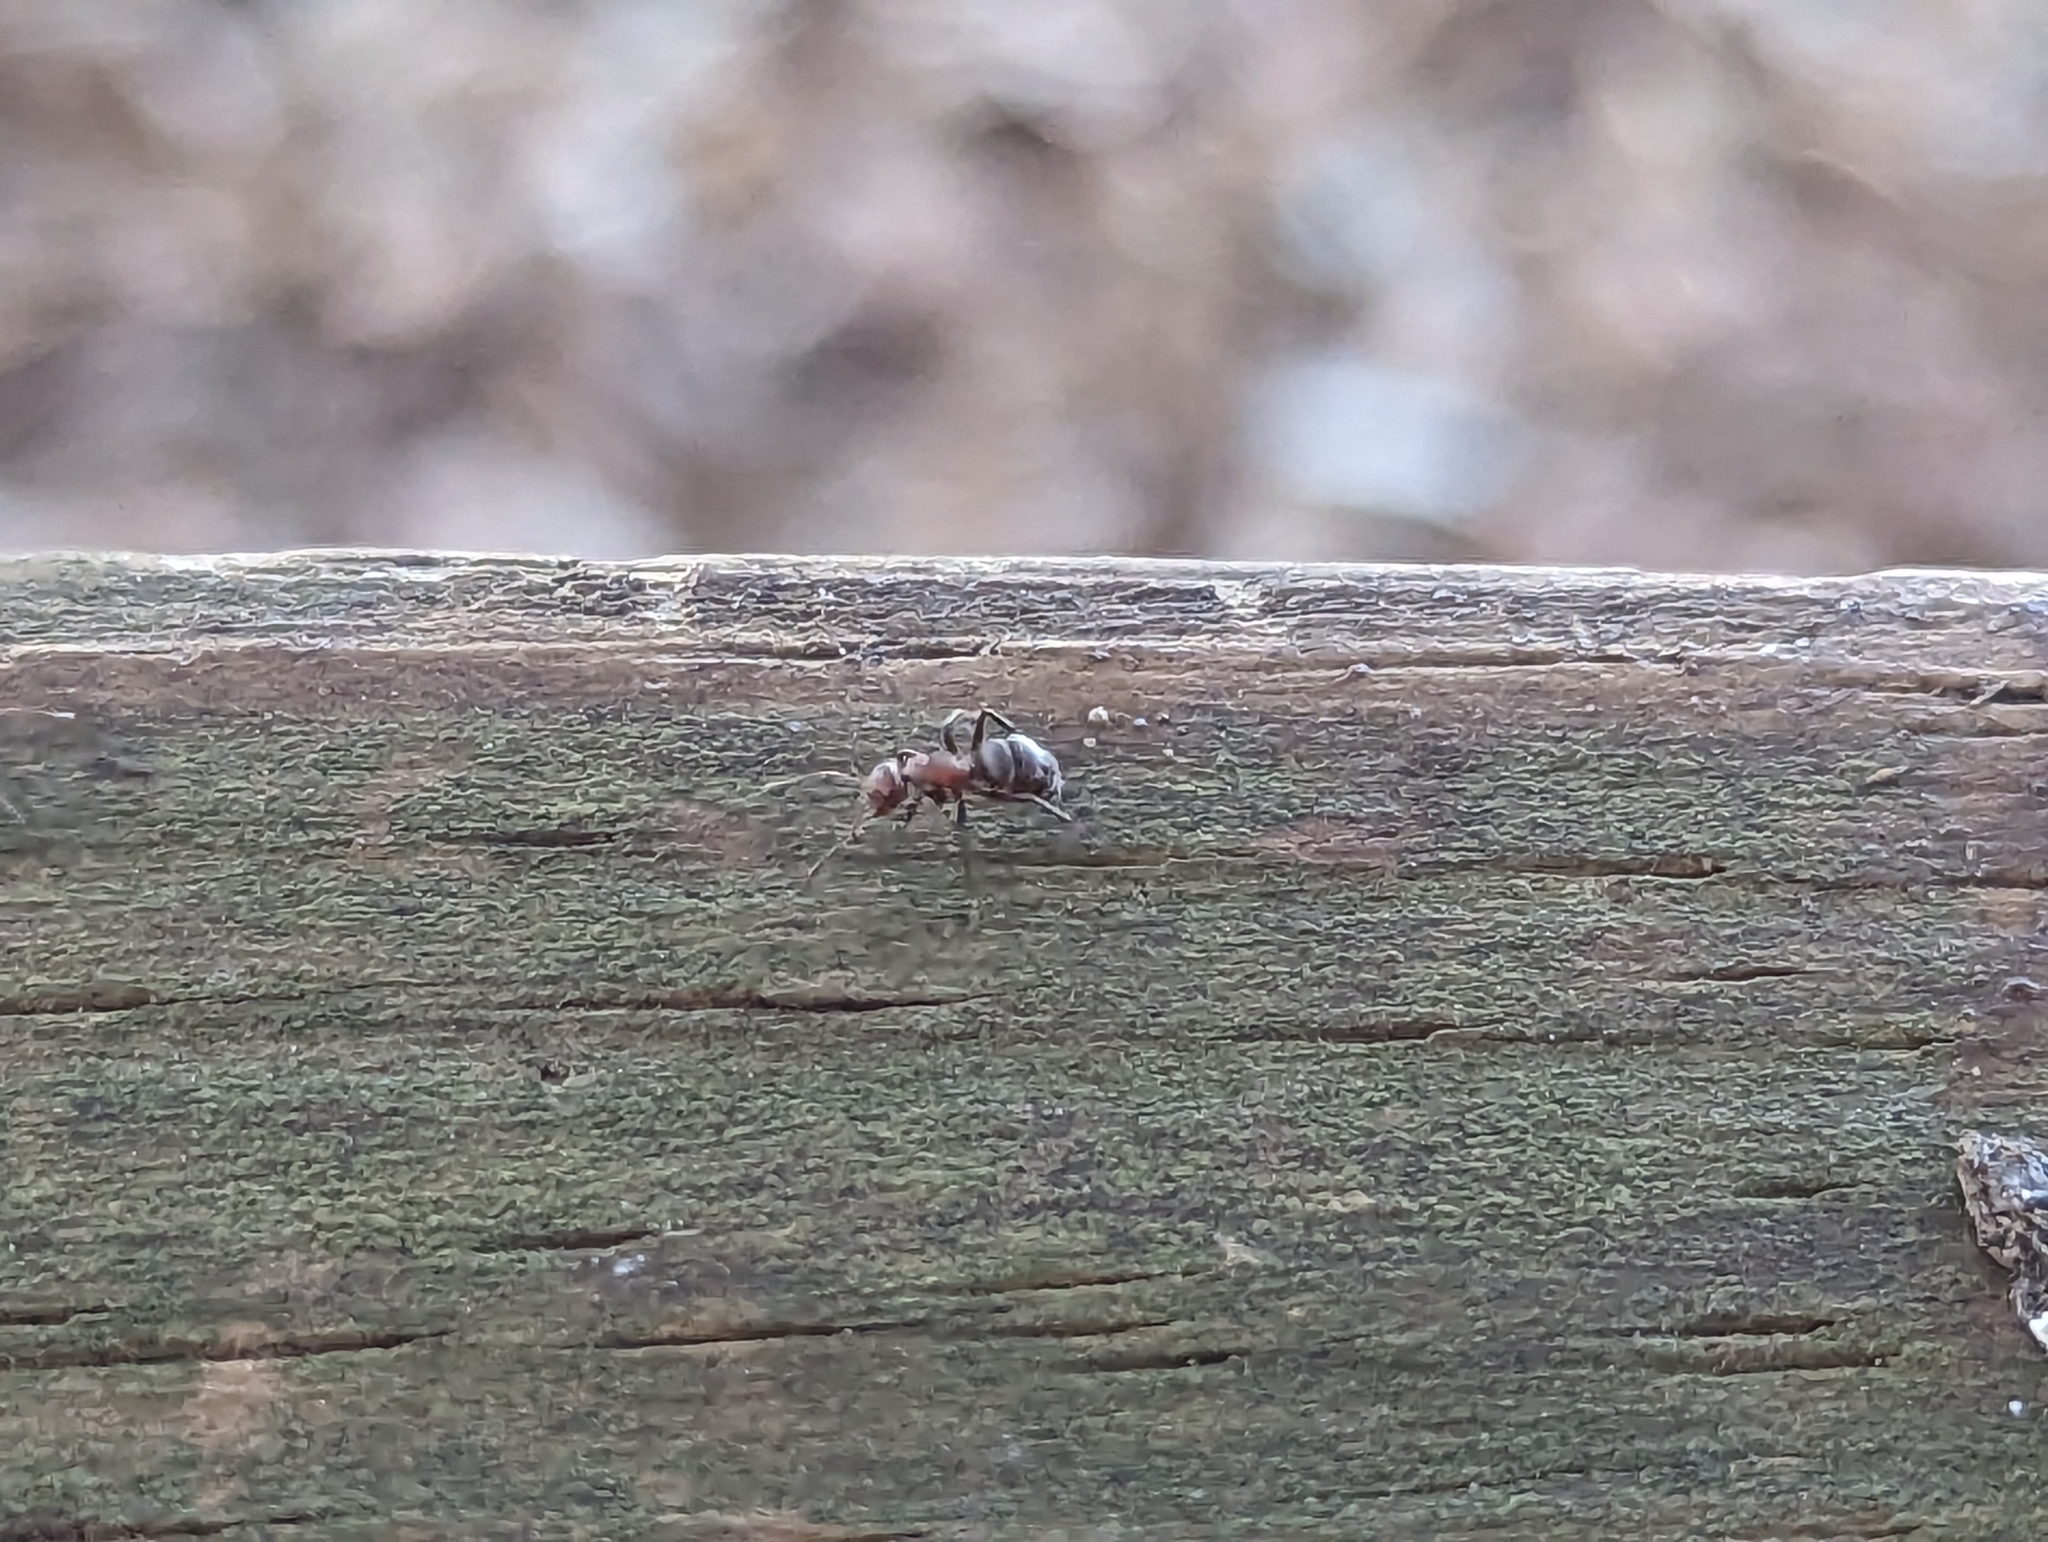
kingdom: Animalia
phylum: Arthropoda
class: Insecta
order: Hymenoptera
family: Formicidae
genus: Camponotus
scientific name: Camponotus planatus
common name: Compact carpenter ant
